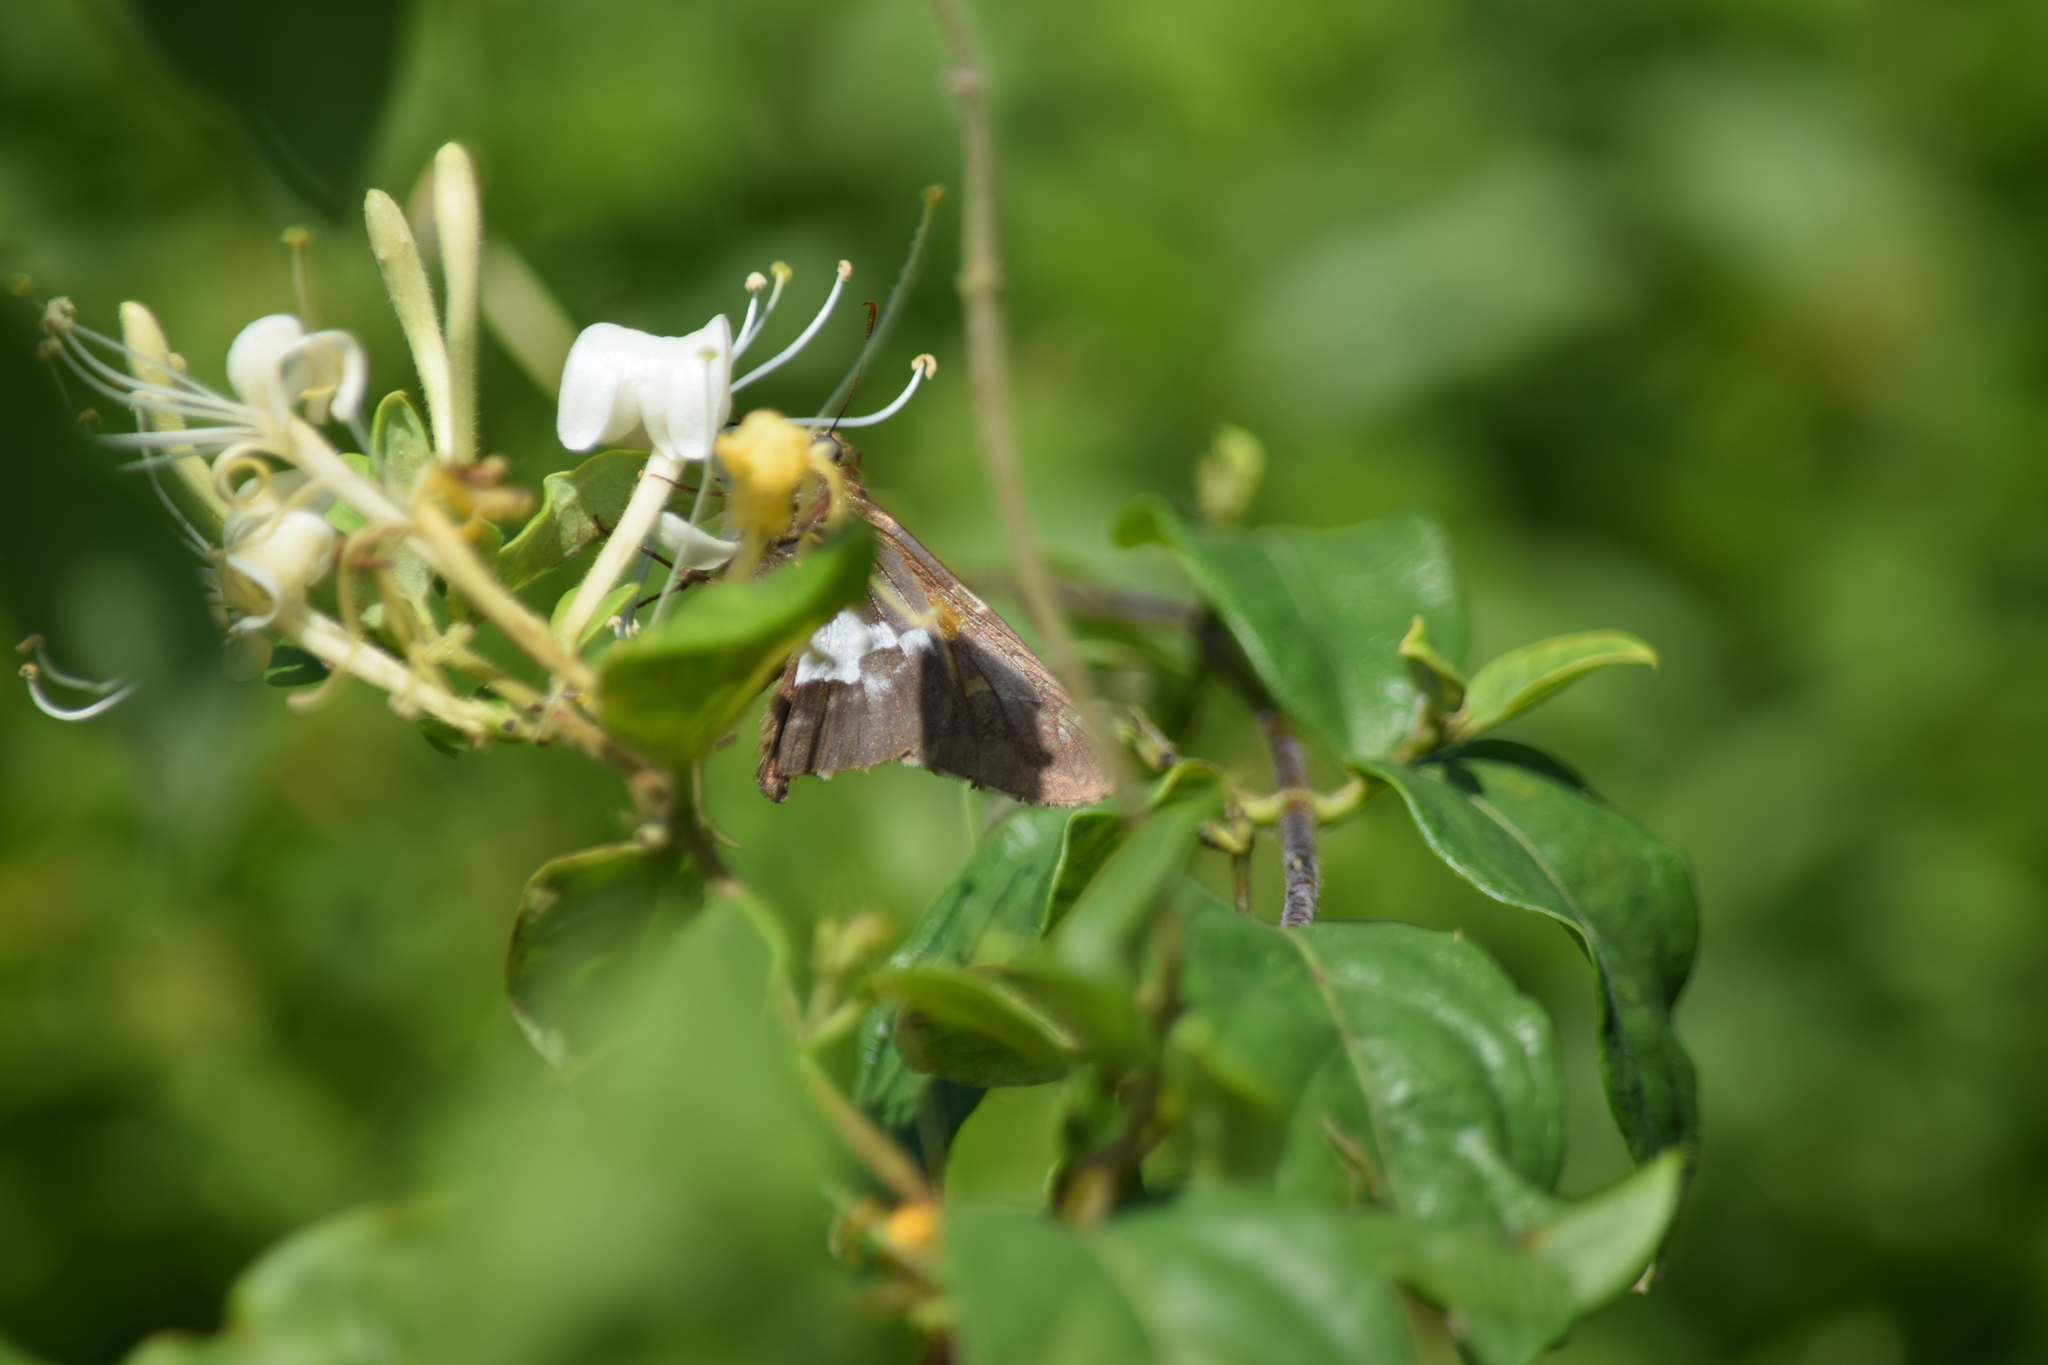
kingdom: Animalia
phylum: Arthropoda
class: Insecta
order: Lepidoptera
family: Hesperiidae
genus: Epargyreus
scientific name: Epargyreus clarus
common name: Silver-spotted skipper
